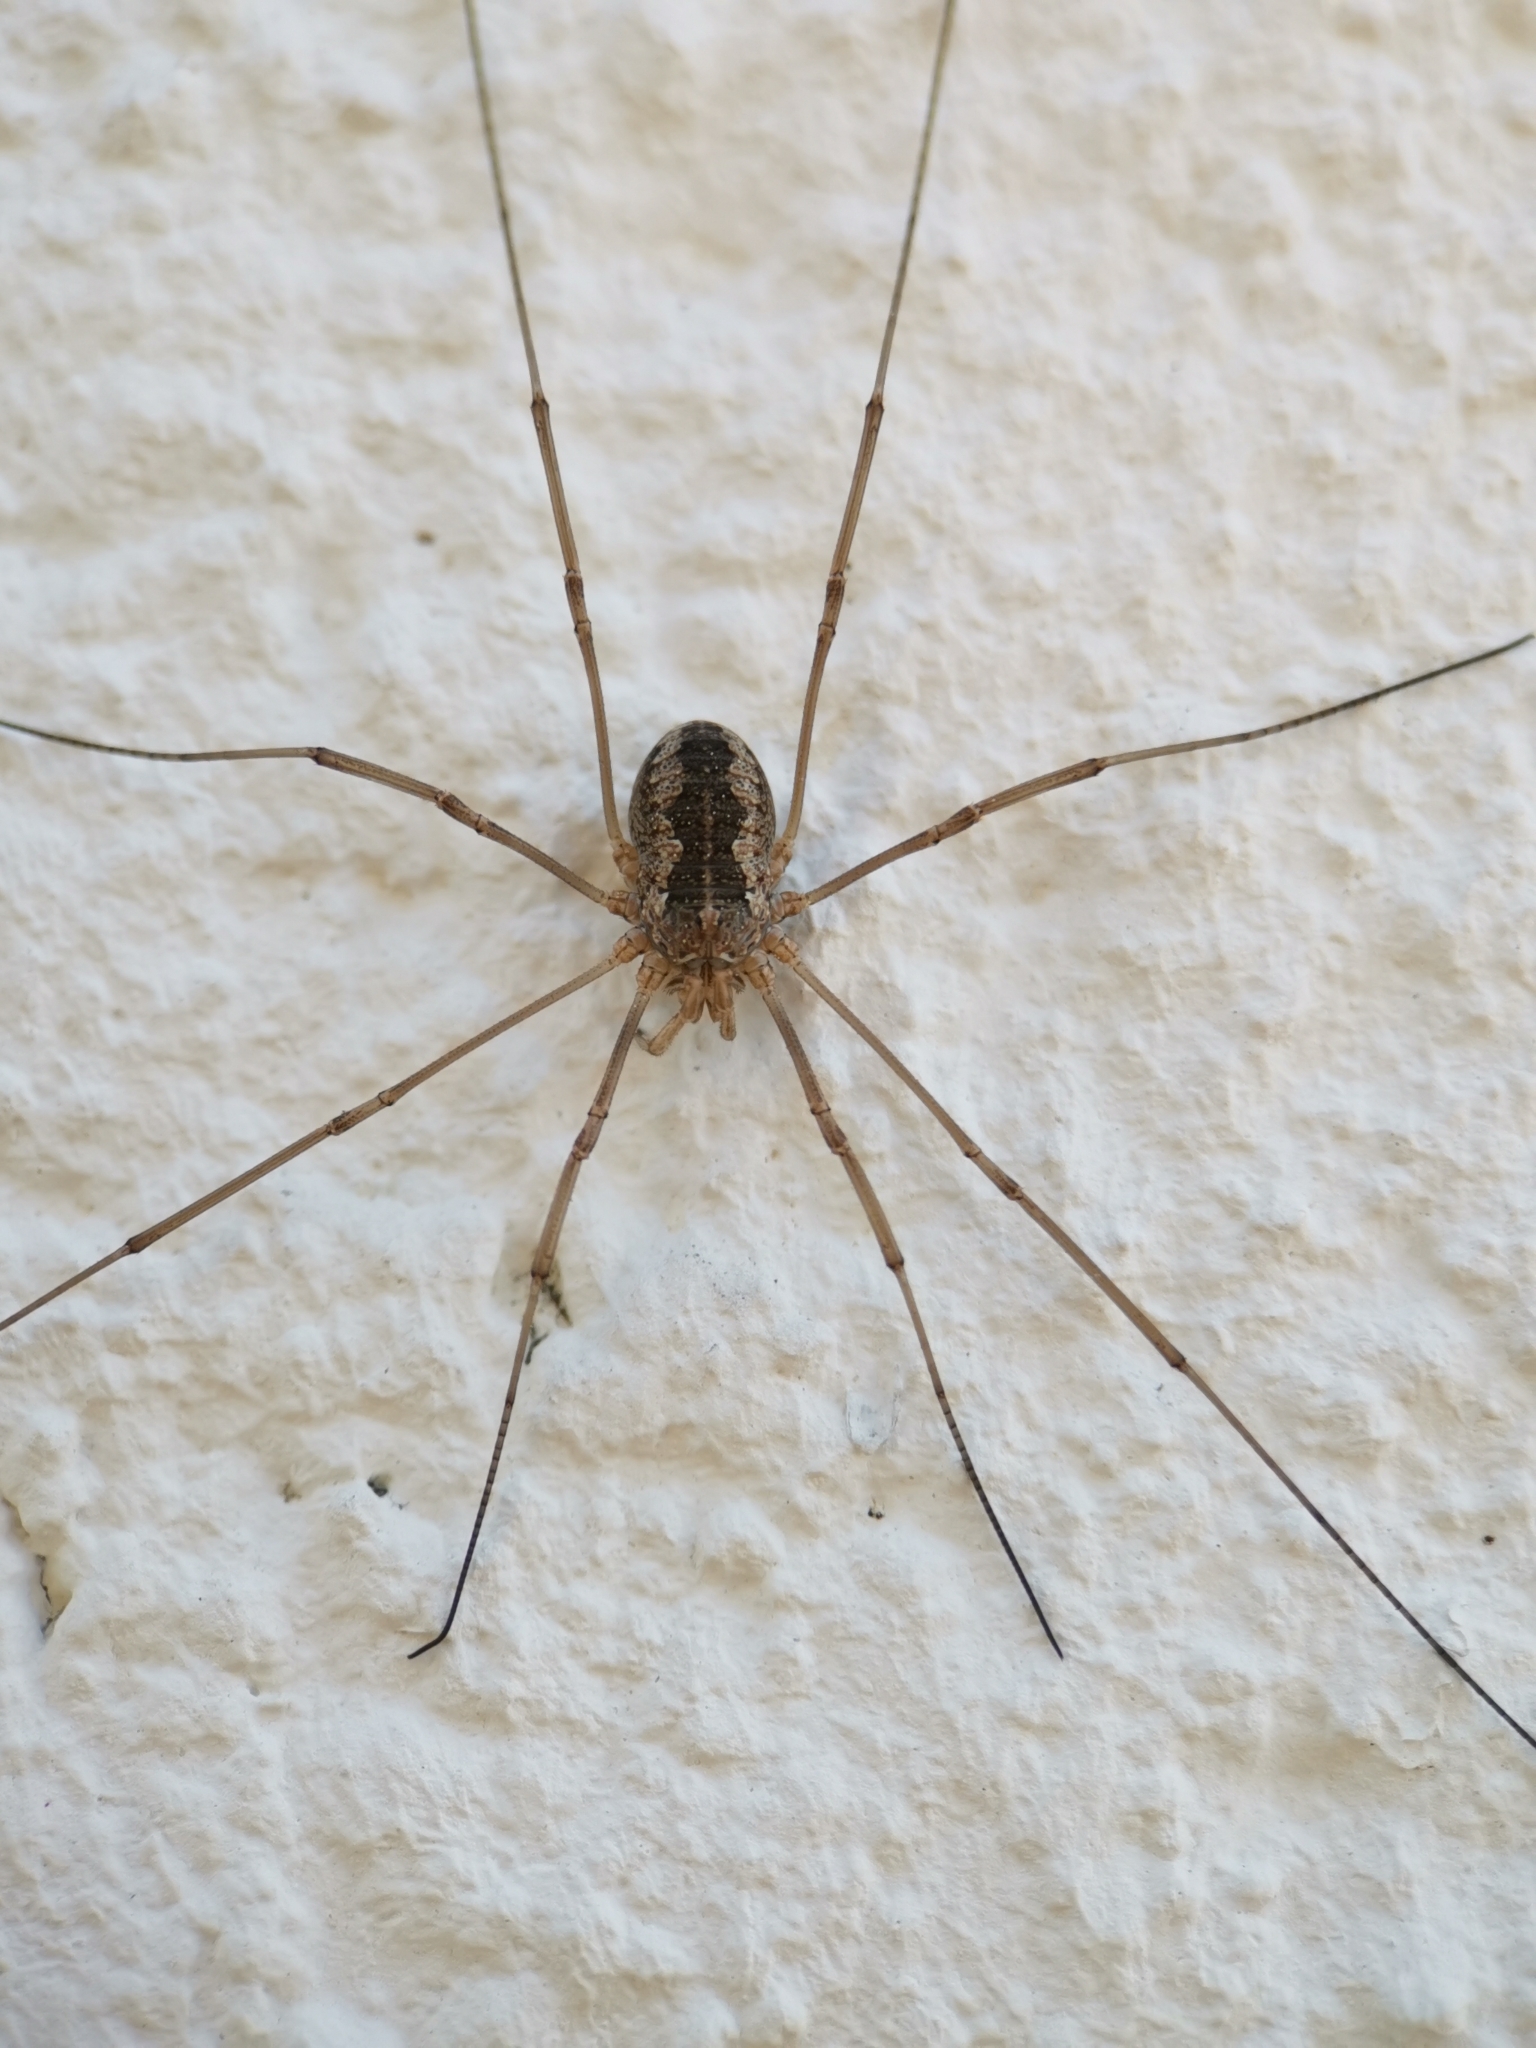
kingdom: Animalia
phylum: Arthropoda
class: Arachnida
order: Opiliones
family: Phalangiidae
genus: Phalangium
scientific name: Phalangium opilio
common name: Daddy longleg
